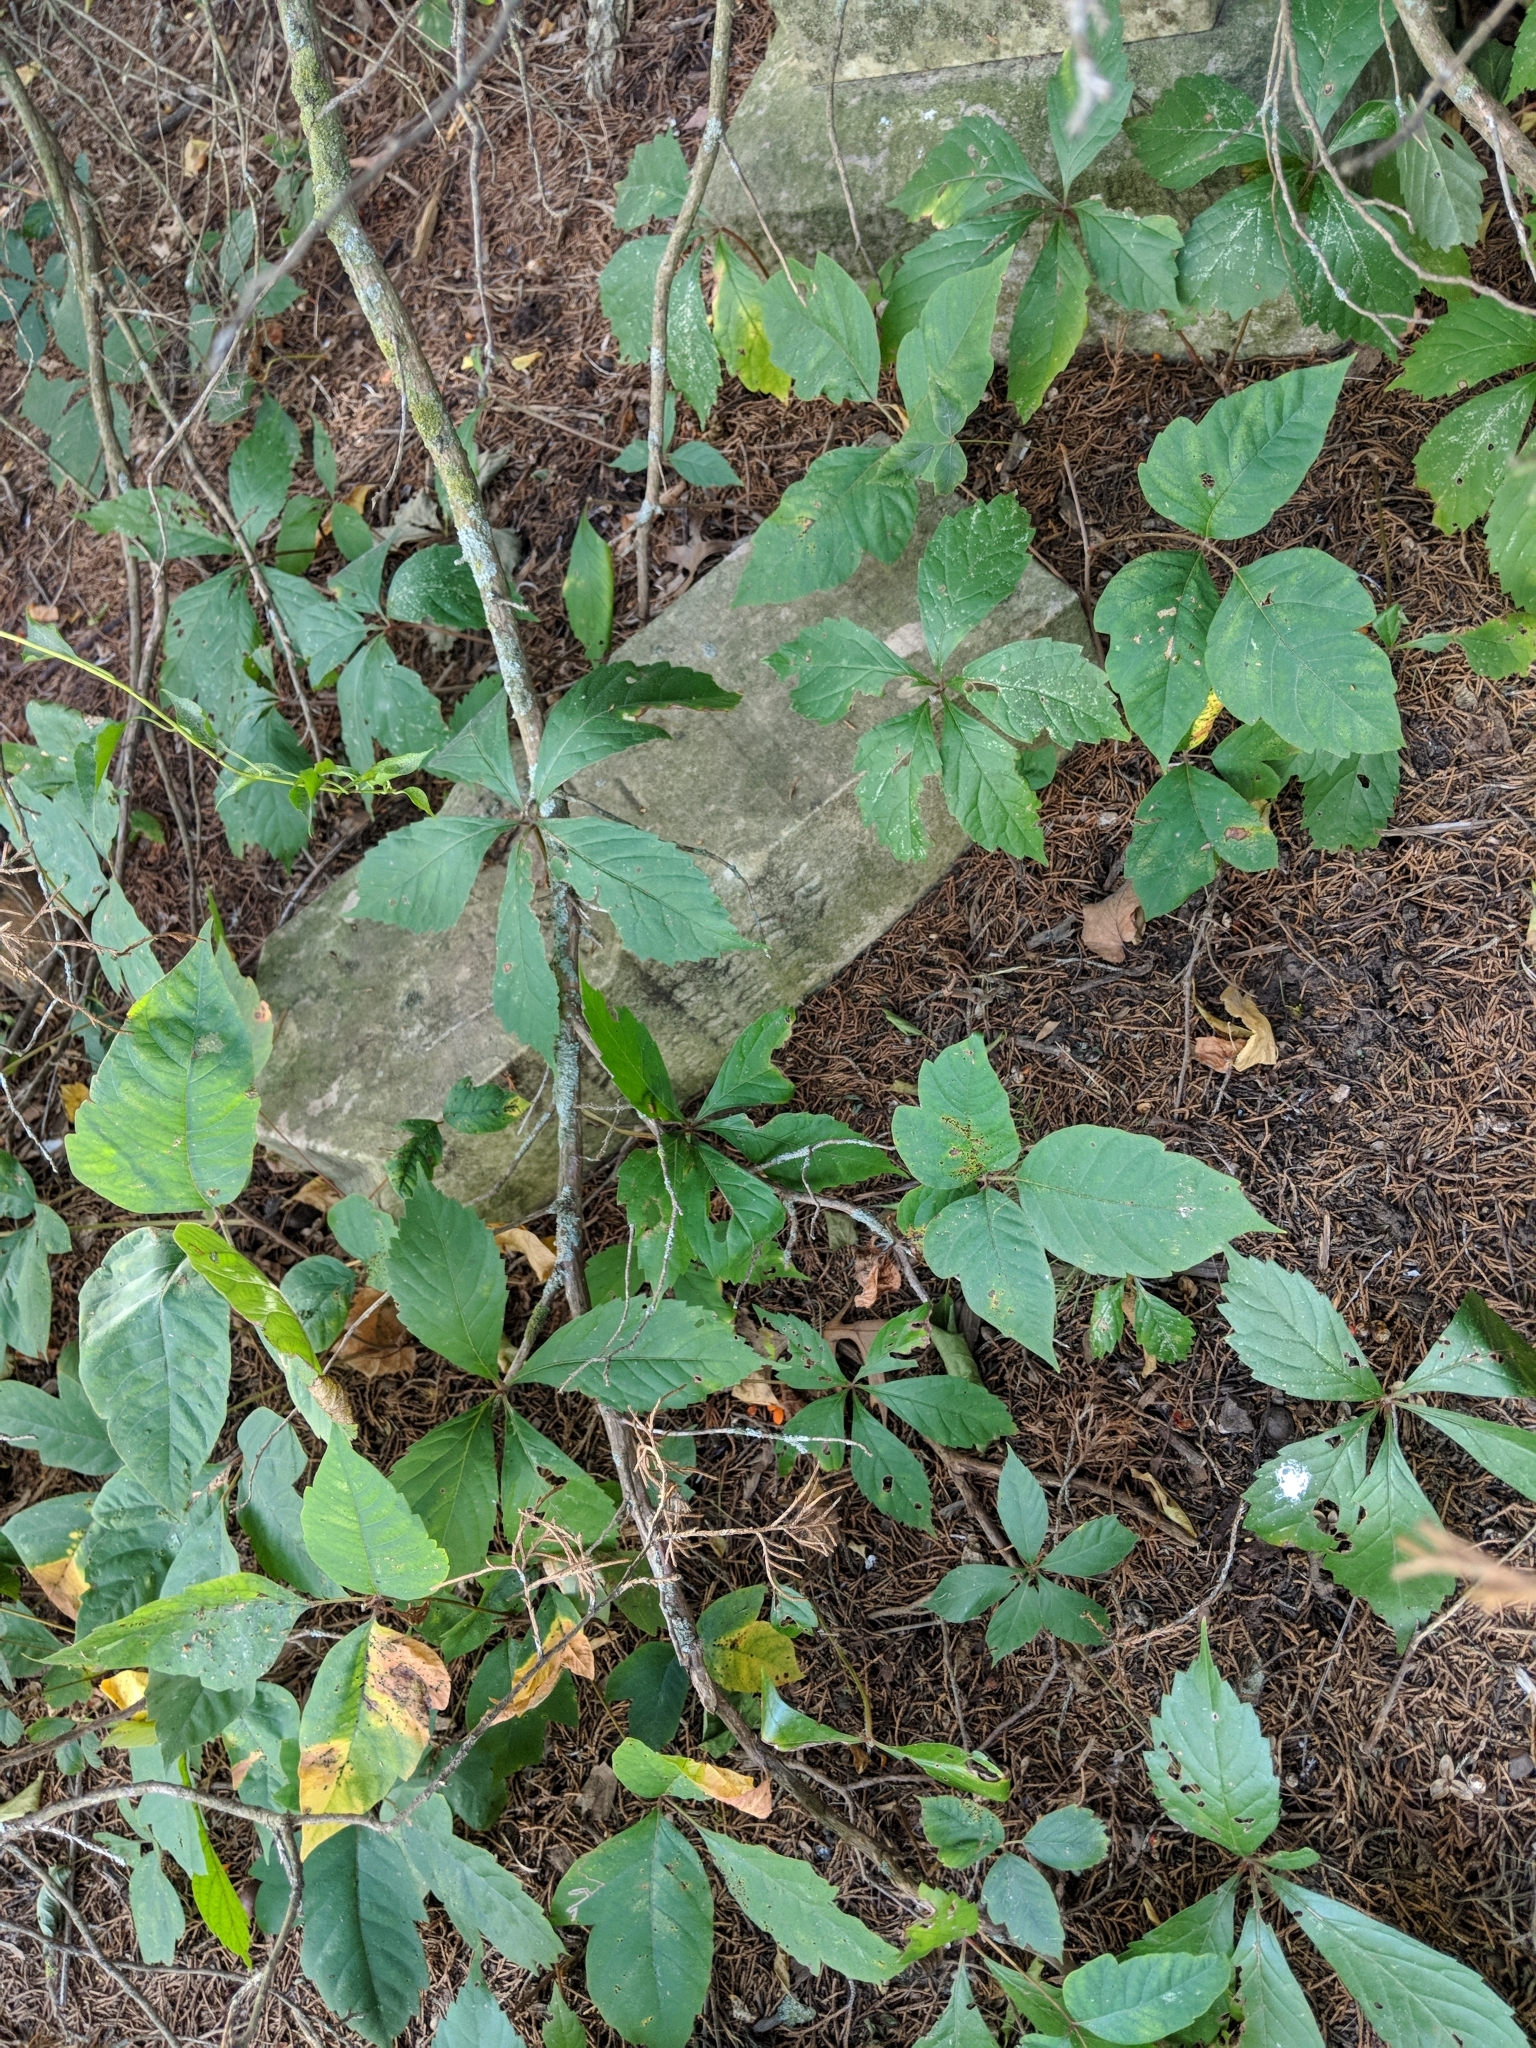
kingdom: Plantae
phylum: Tracheophyta
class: Magnoliopsida
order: Sapindales
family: Anacardiaceae
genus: Toxicodendron
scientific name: Toxicodendron radicans
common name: Poison ivy
